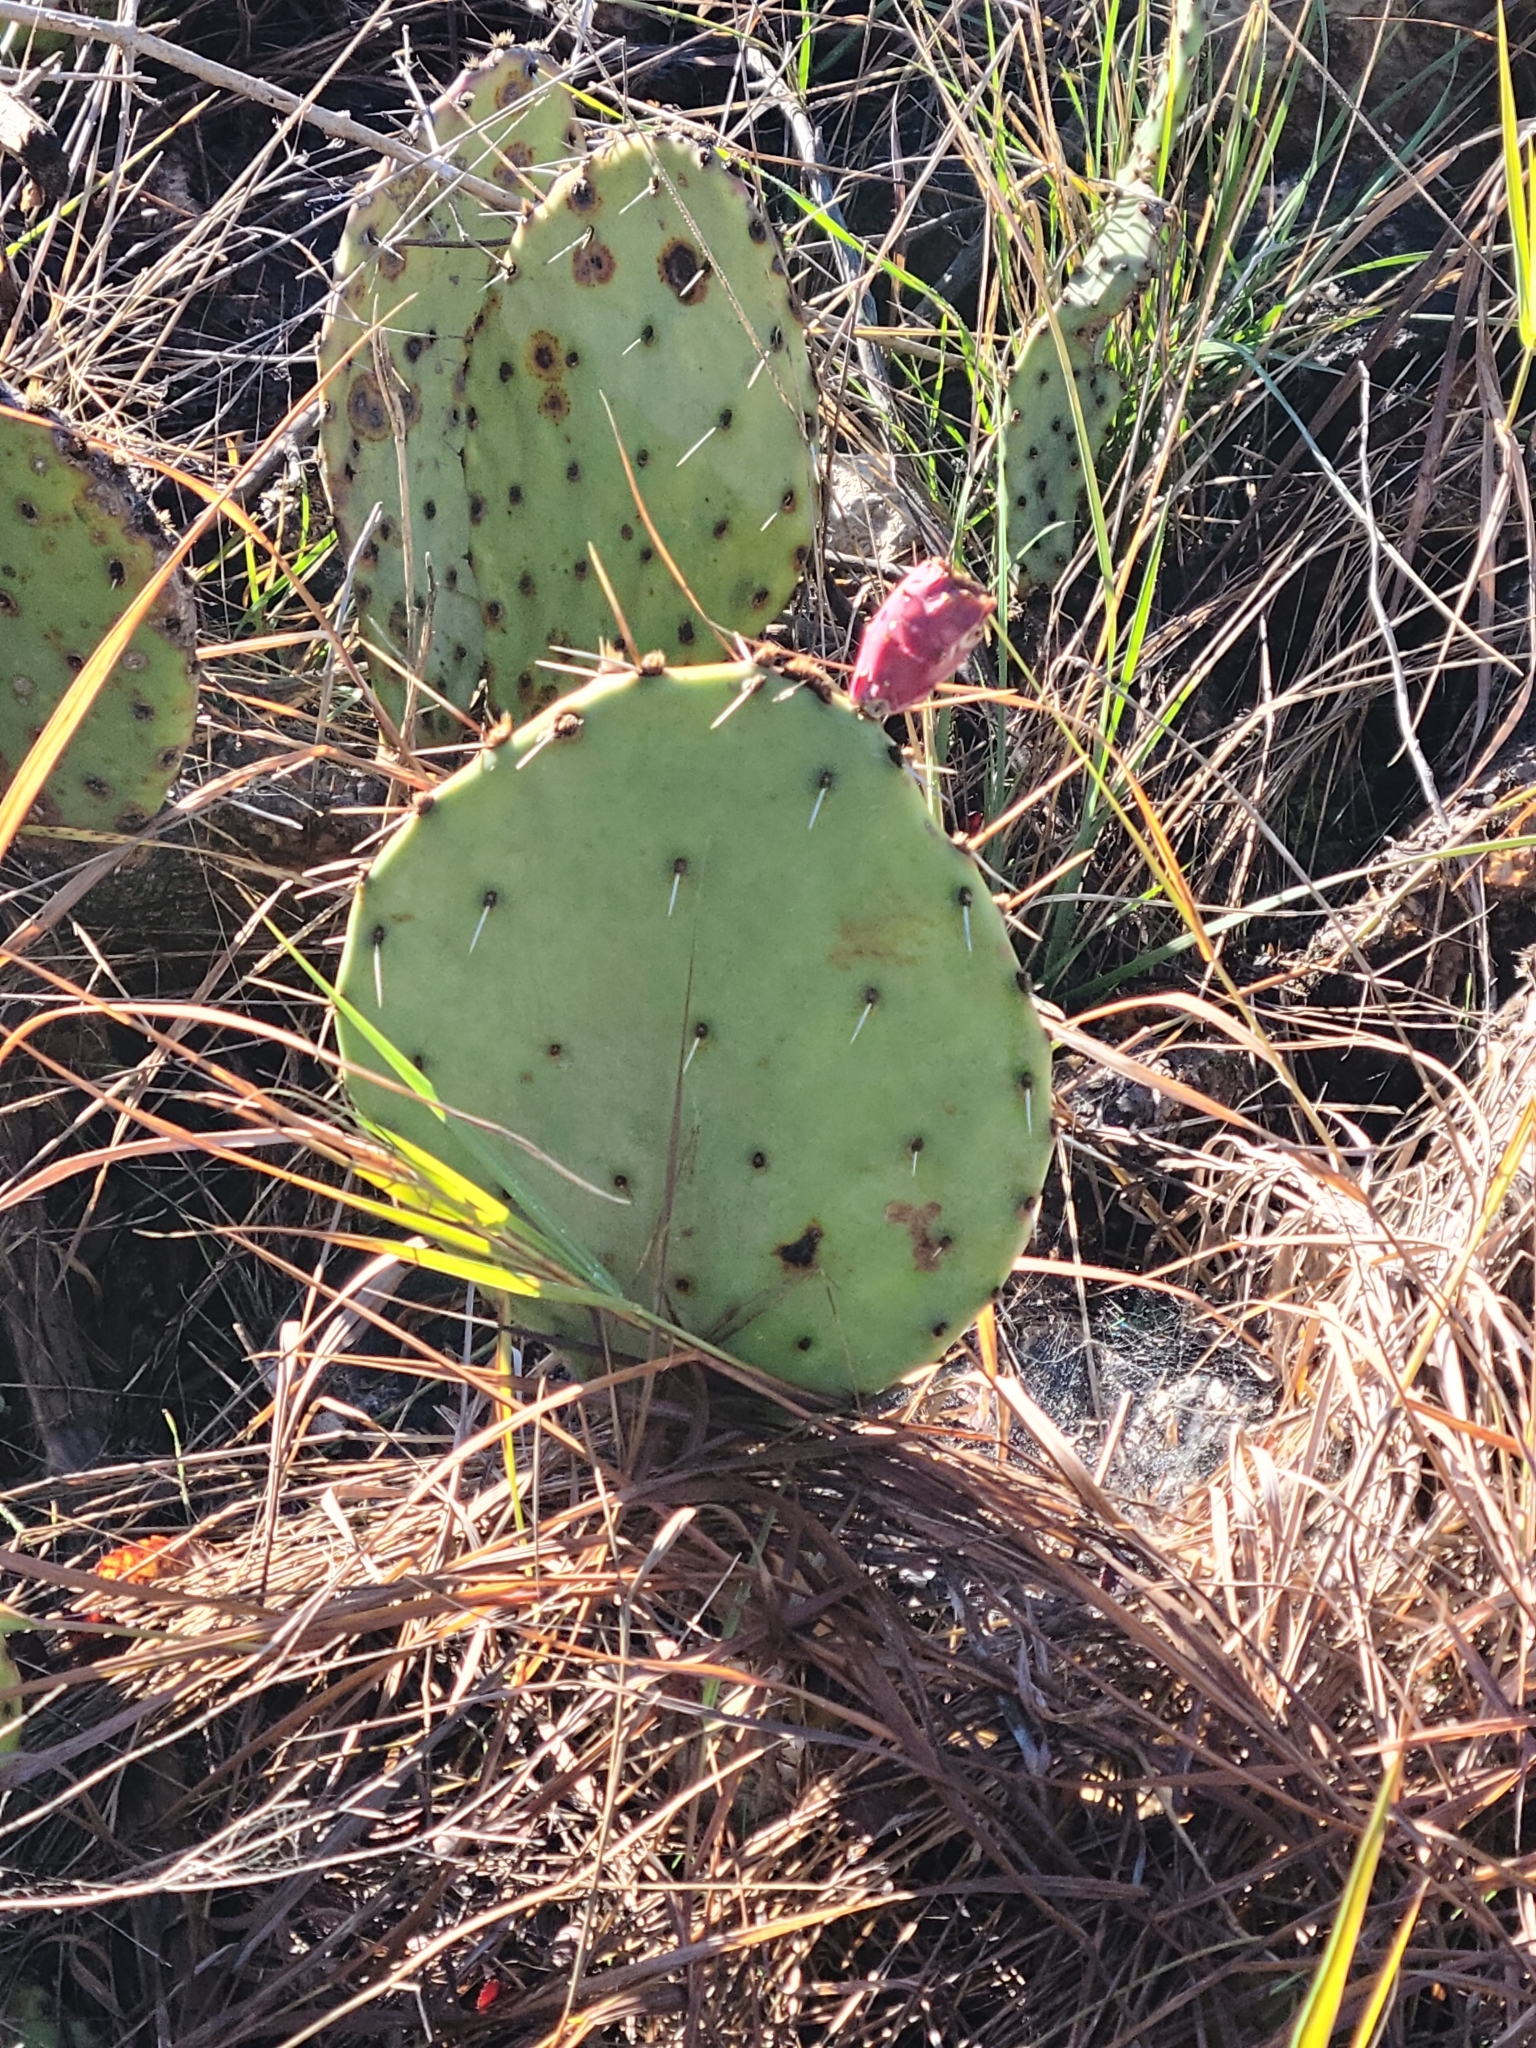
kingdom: Plantae
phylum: Tracheophyta
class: Magnoliopsida
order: Caryophyllales
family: Cactaceae
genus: Opuntia
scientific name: Opuntia phaeacantha
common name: New mexico prickly-pear
